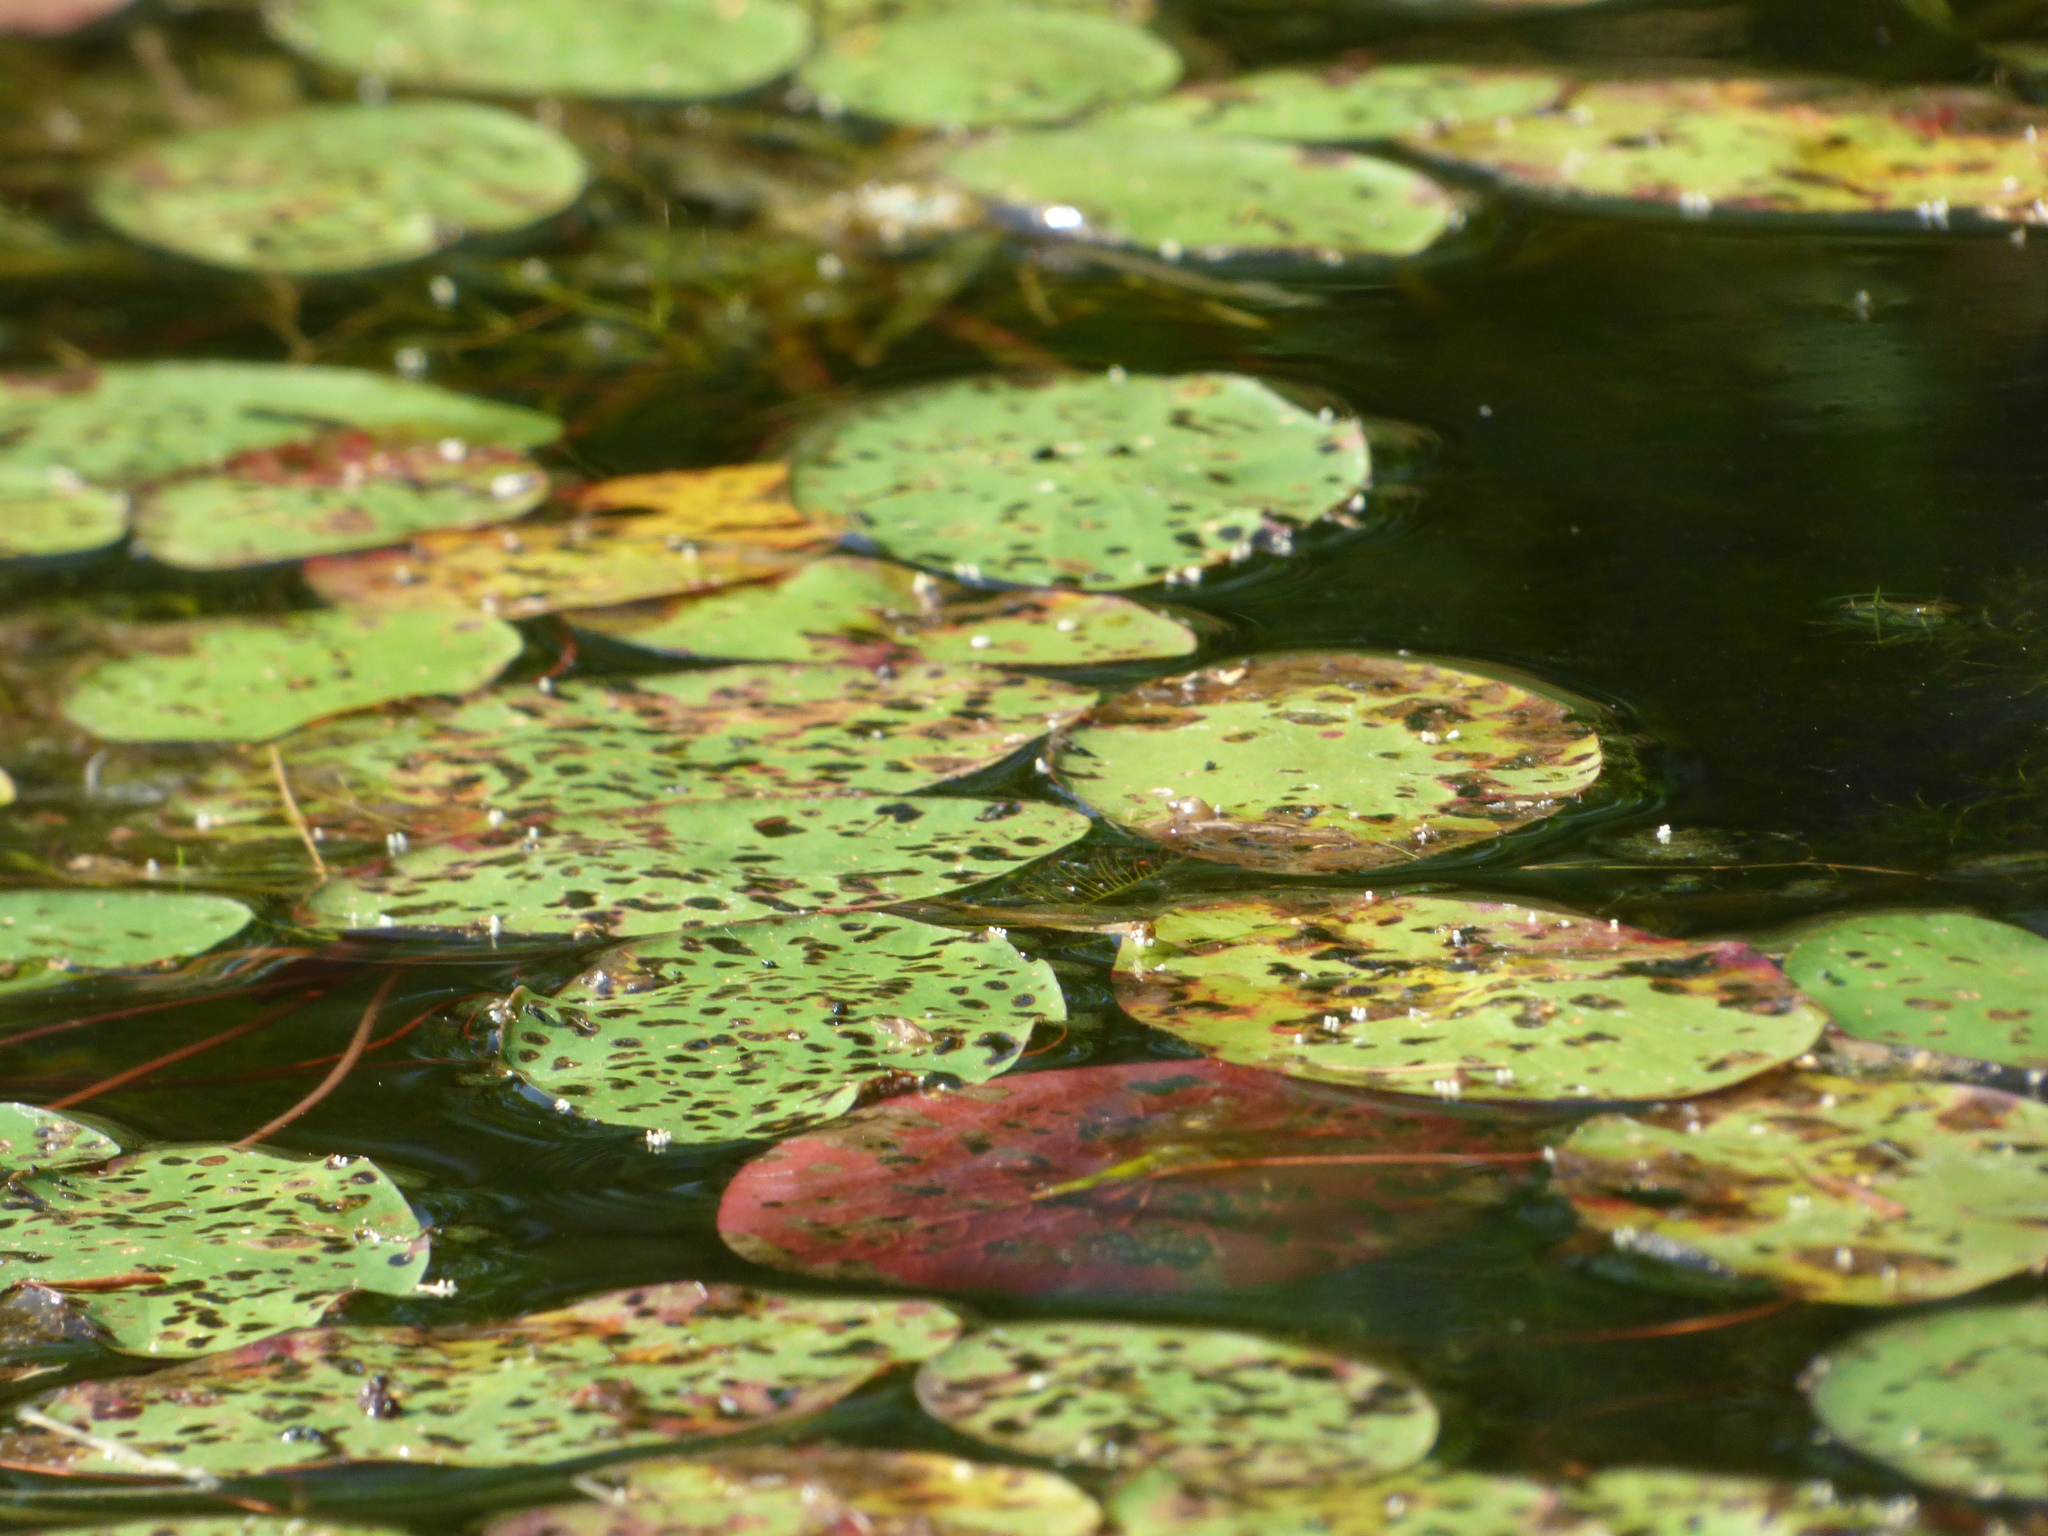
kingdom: Plantae
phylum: Tracheophyta
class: Magnoliopsida
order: Nymphaeales
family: Cabombaceae
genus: Brasenia
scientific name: Brasenia schreberi
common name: Water-shield
